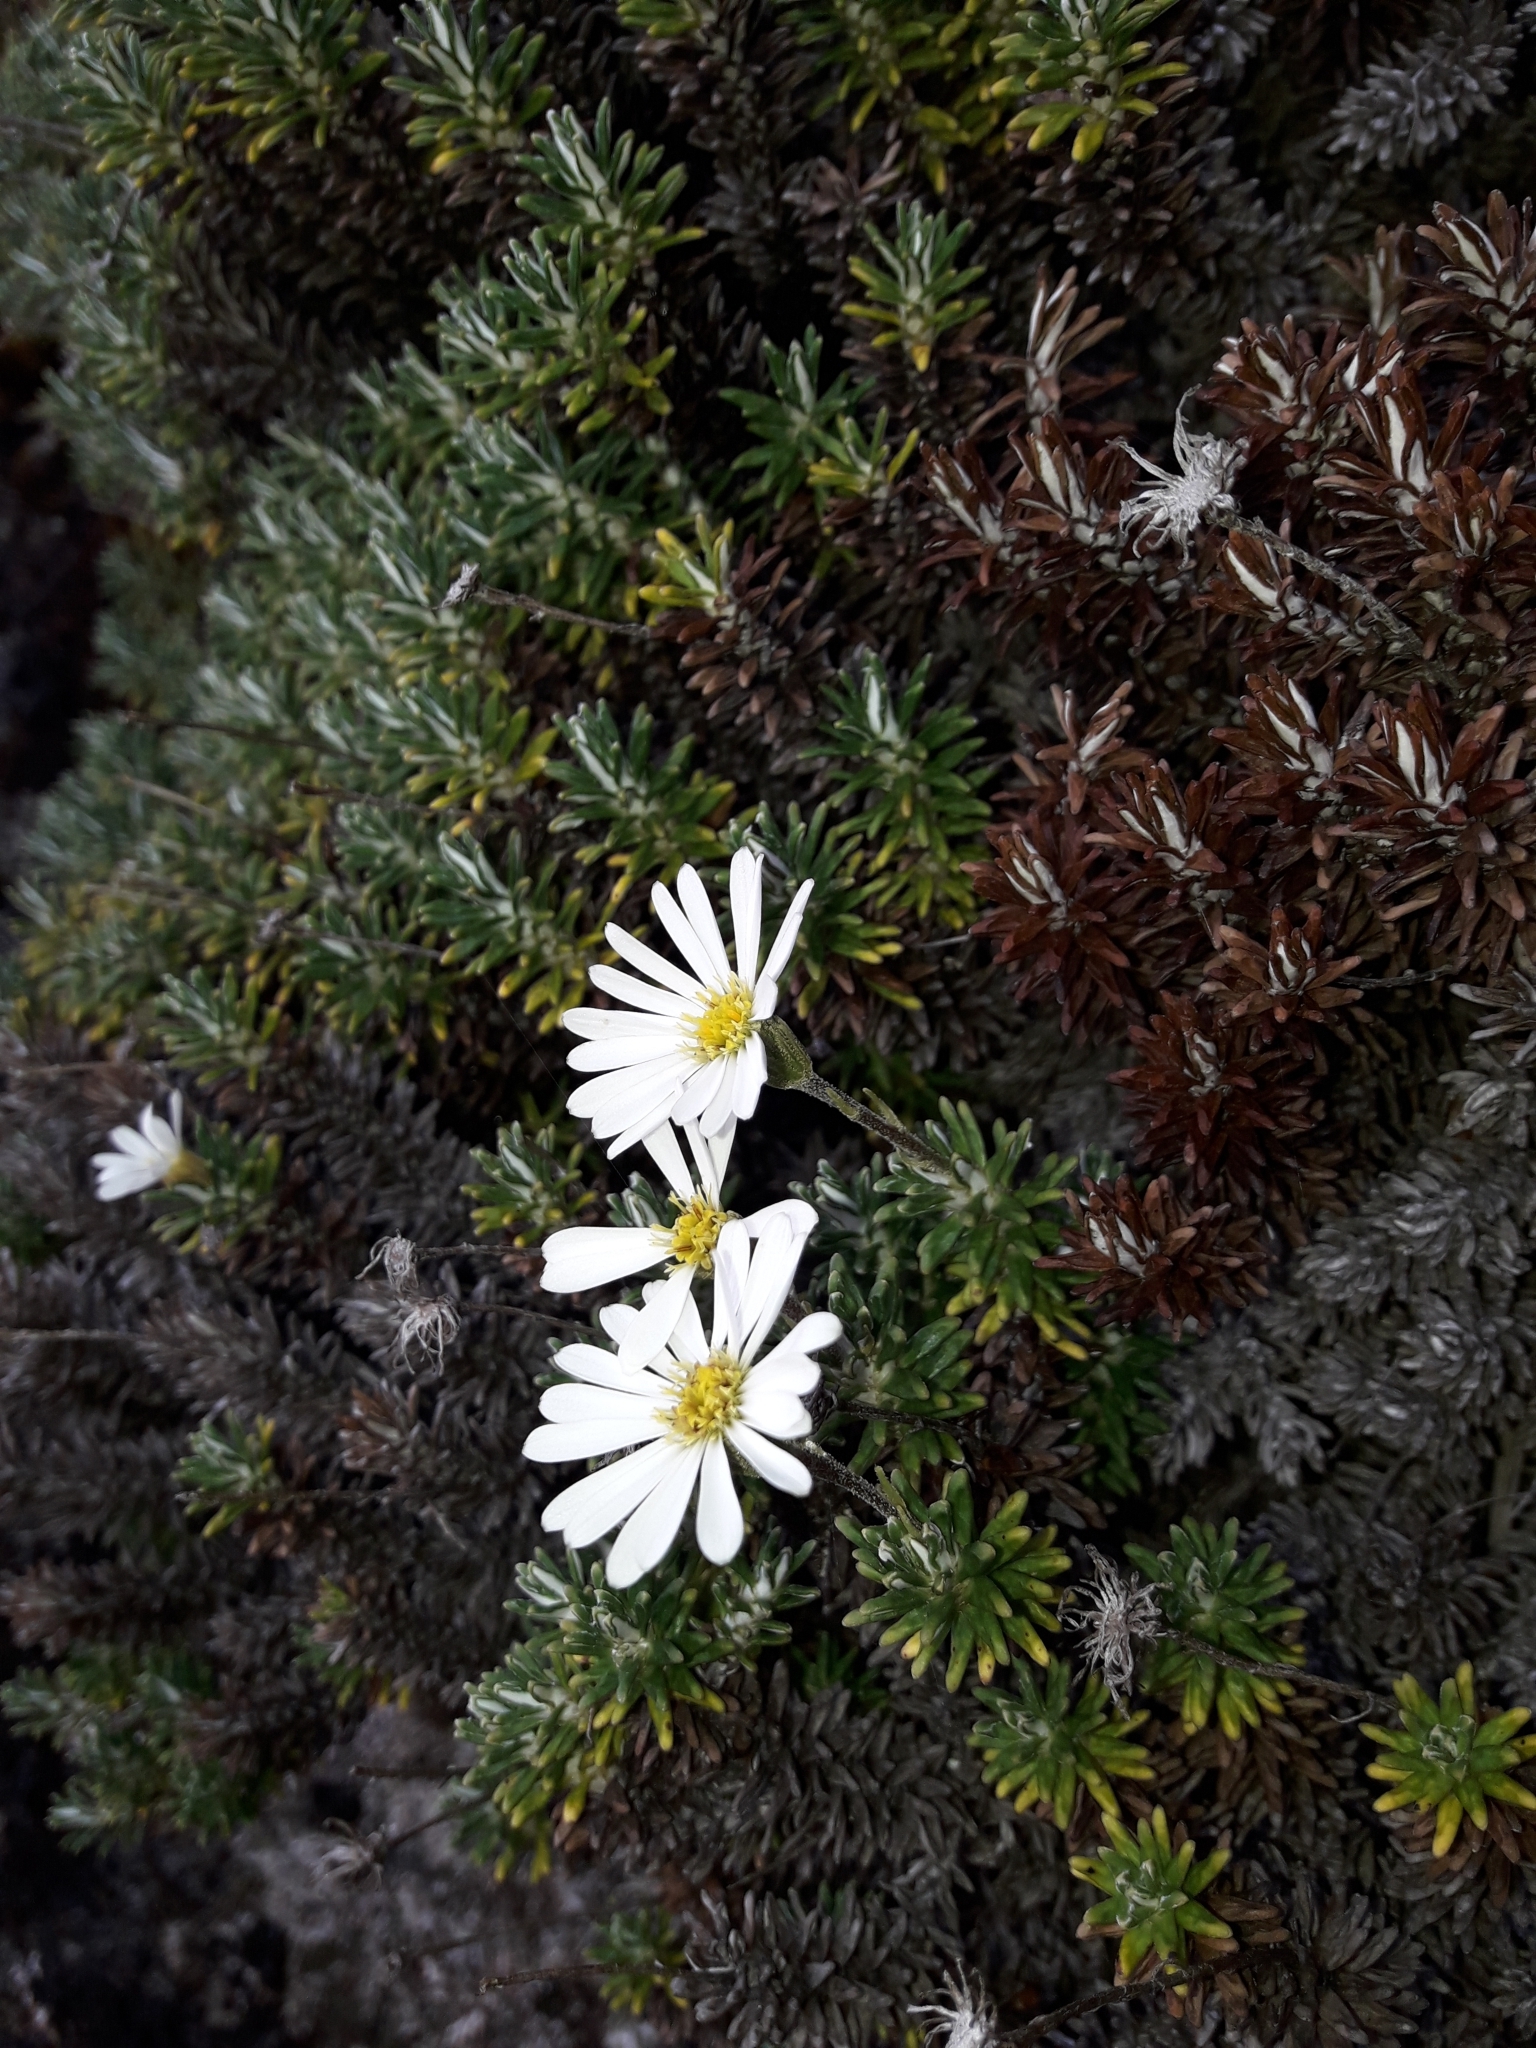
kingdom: Plantae
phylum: Tracheophyta
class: Magnoliopsida
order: Asterales
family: Asteraceae
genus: Celmisia
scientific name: Celmisia walkeri
